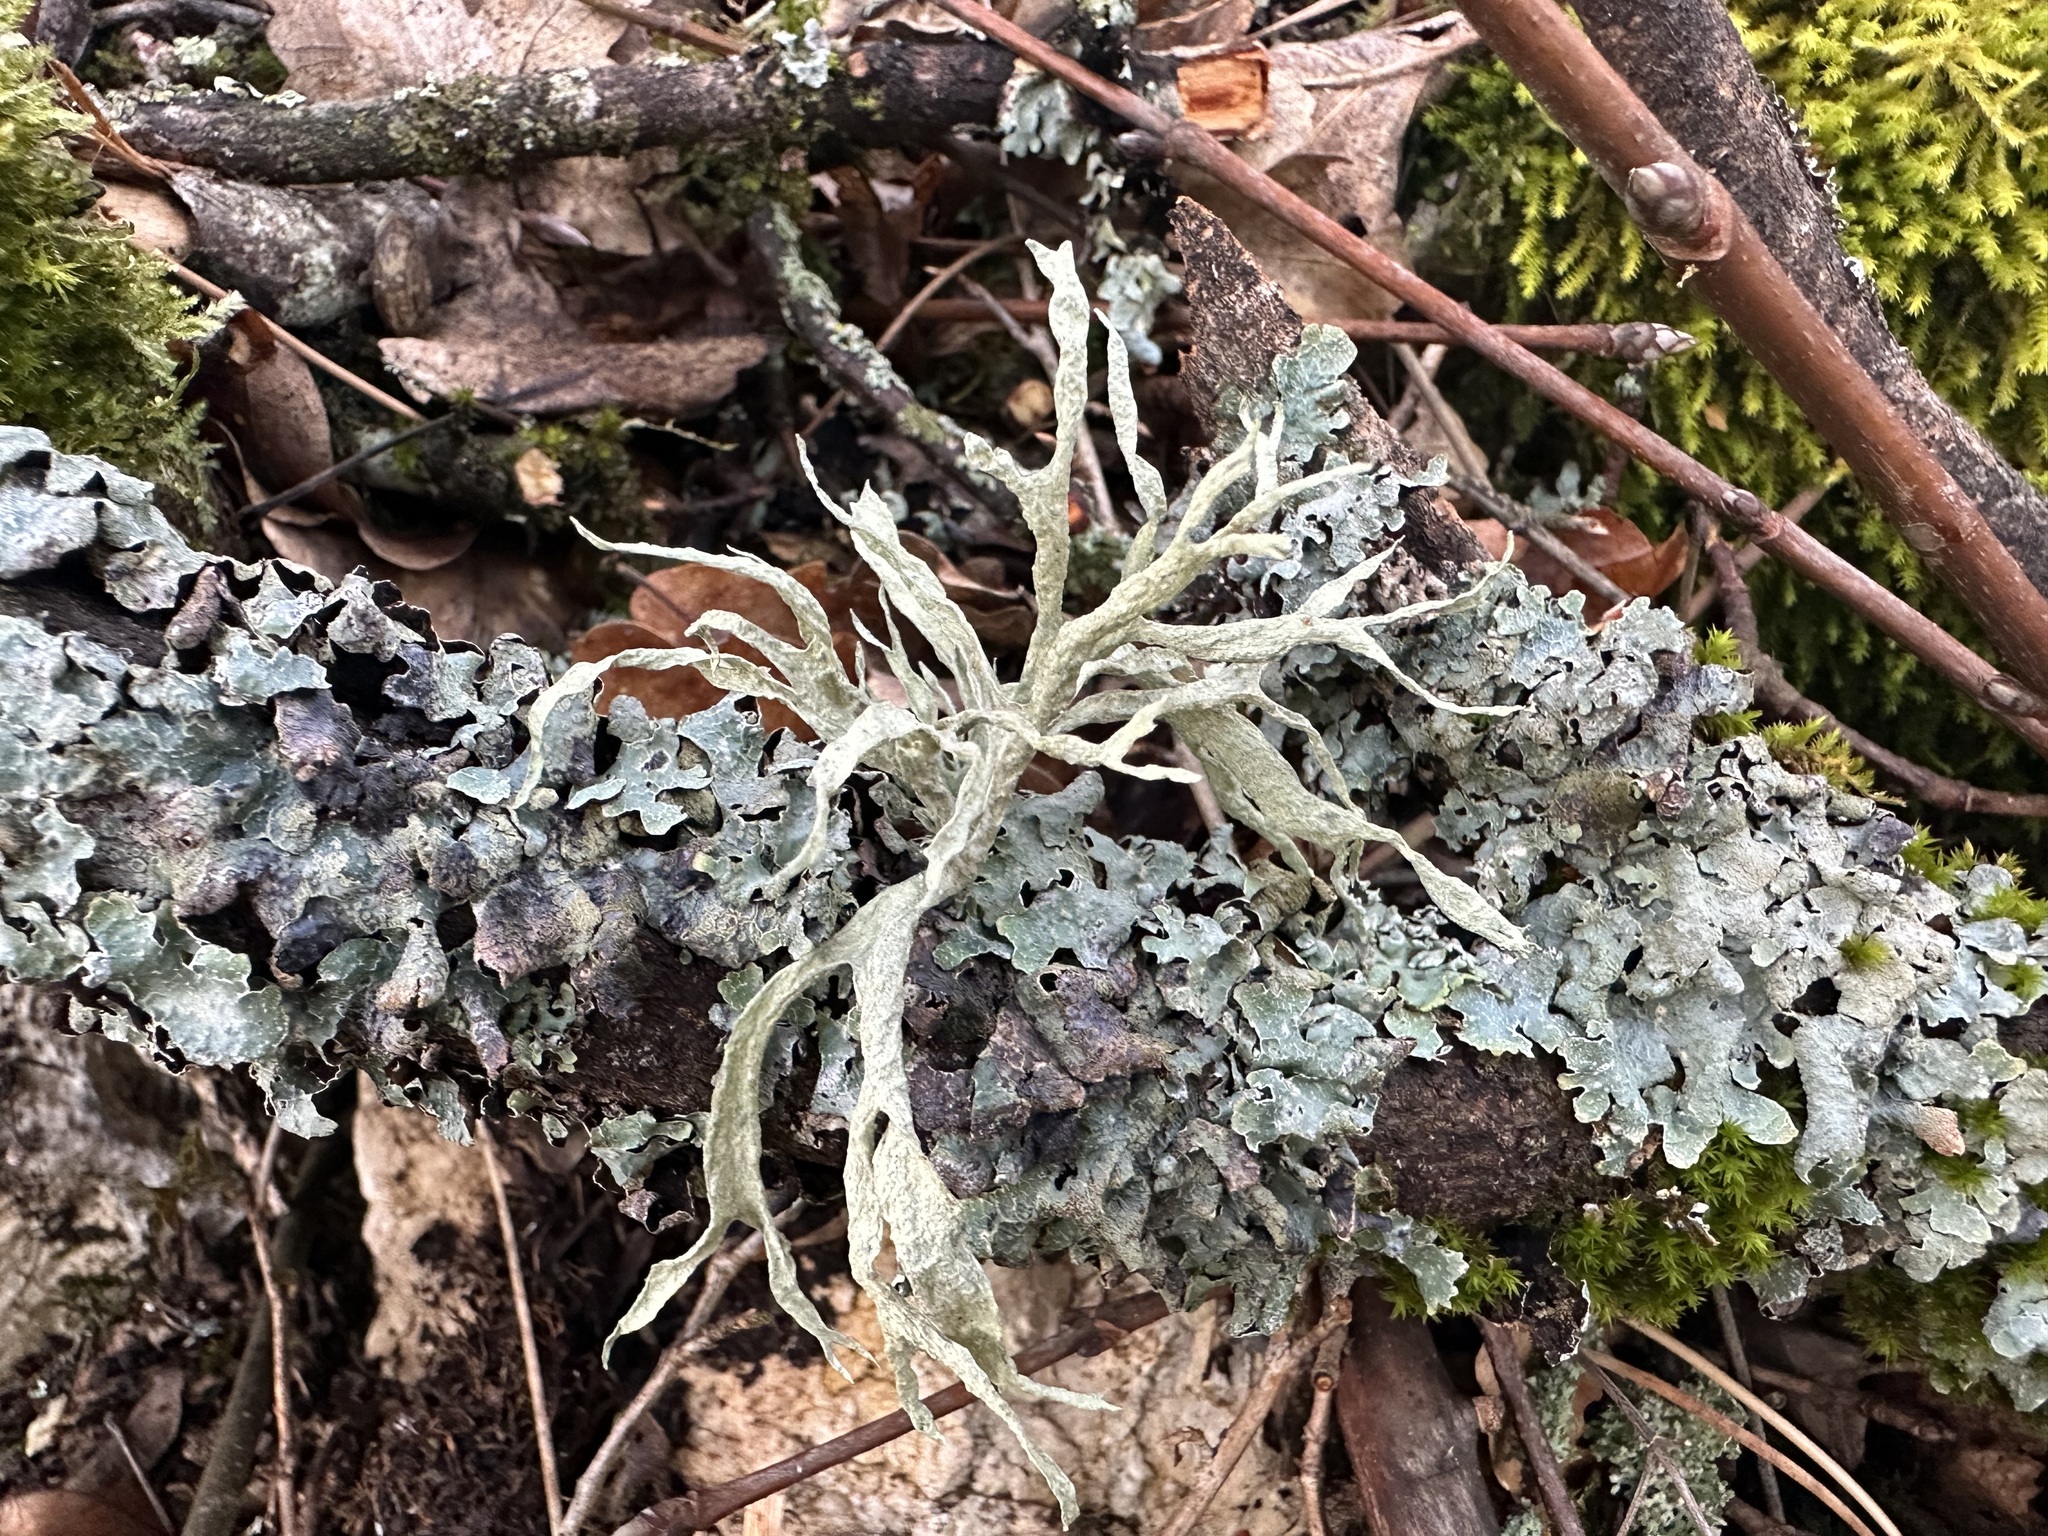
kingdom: Fungi
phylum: Ascomycota
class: Lecanoromycetes
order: Lecanorales
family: Ramalinaceae
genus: Ramalina
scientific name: Ramalina fraxinea
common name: Cartilage lichen
